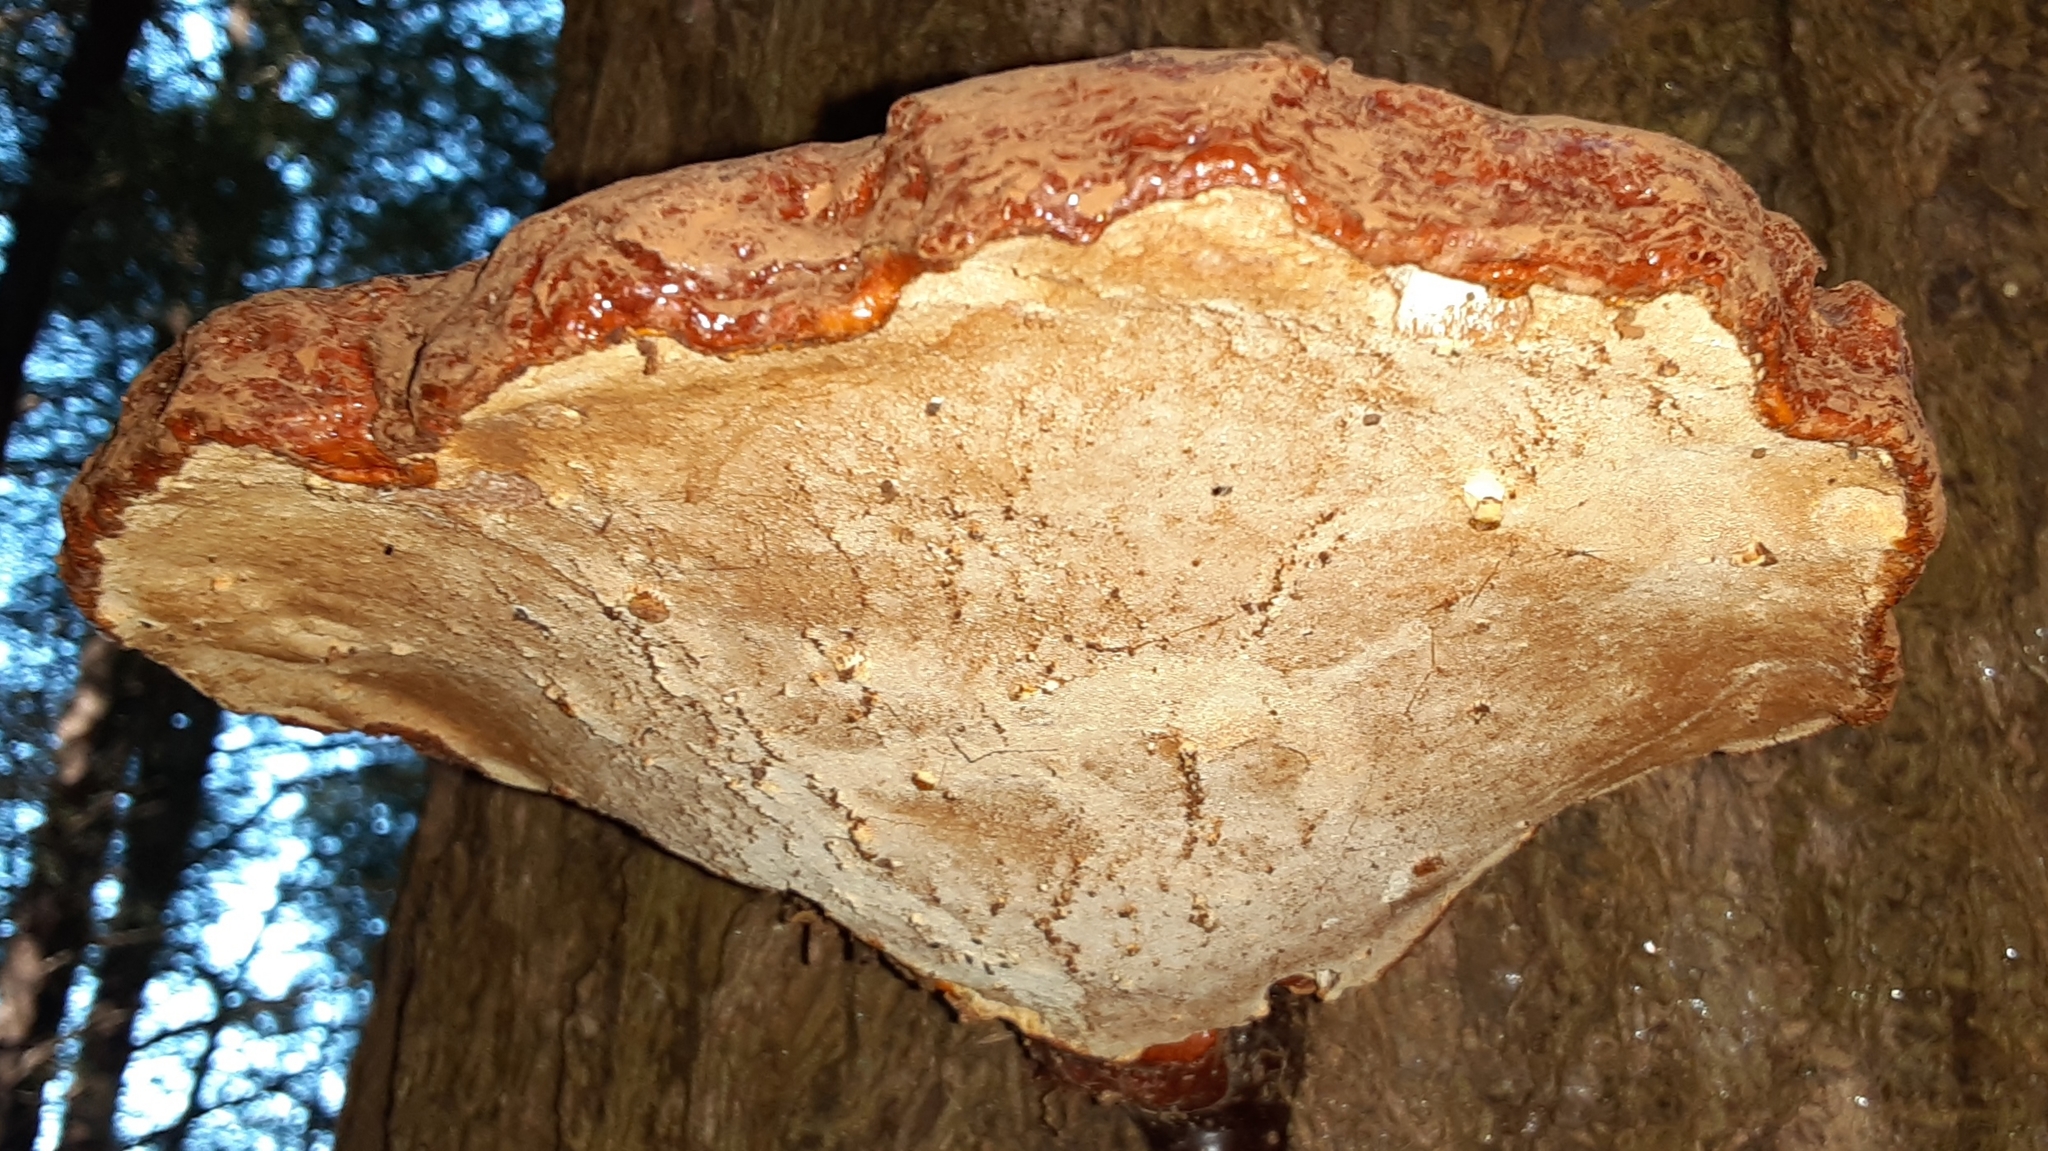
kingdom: Fungi
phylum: Basidiomycota
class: Agaricomycetes
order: Polyporales
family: Polyporaceae
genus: Ganoderma
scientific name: Ganoderma tsugae
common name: Hemlock varnish shelf
